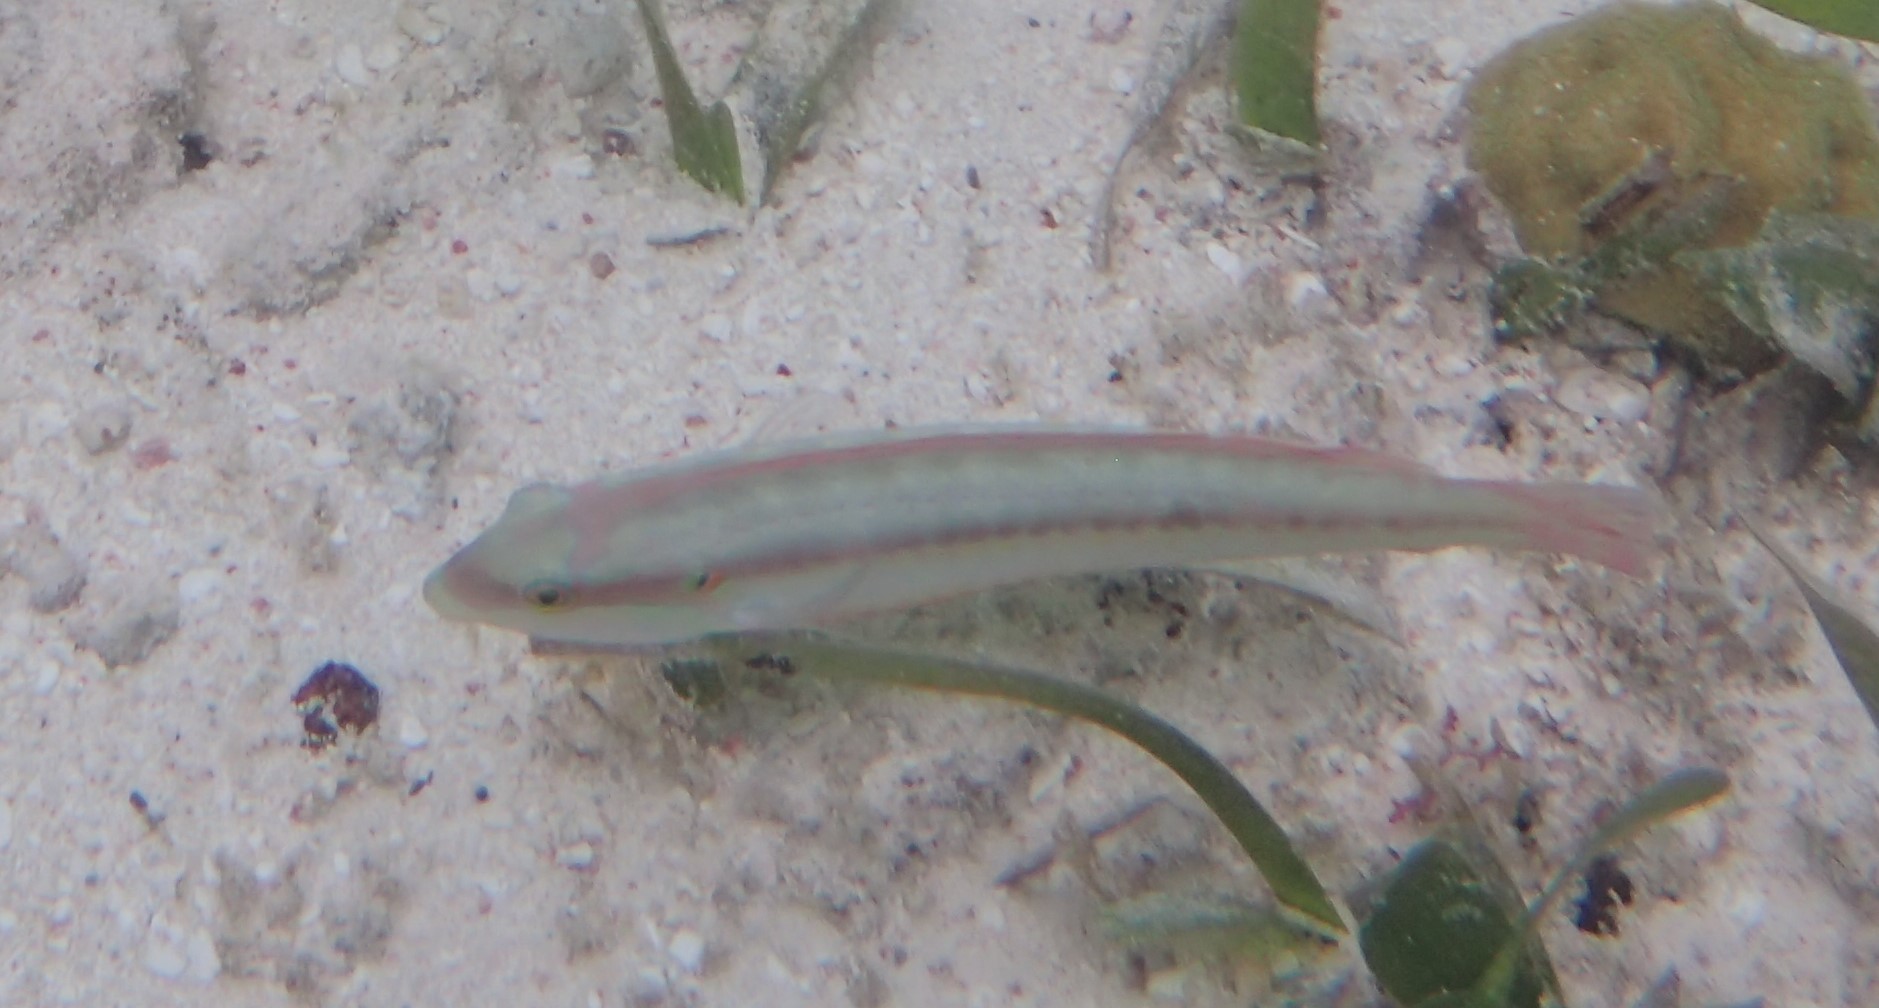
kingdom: Animalia
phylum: Chordata
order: Perciformes
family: Labridae
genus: Halichoeres
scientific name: Halichoeres bivittatus
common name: Slippery dick
